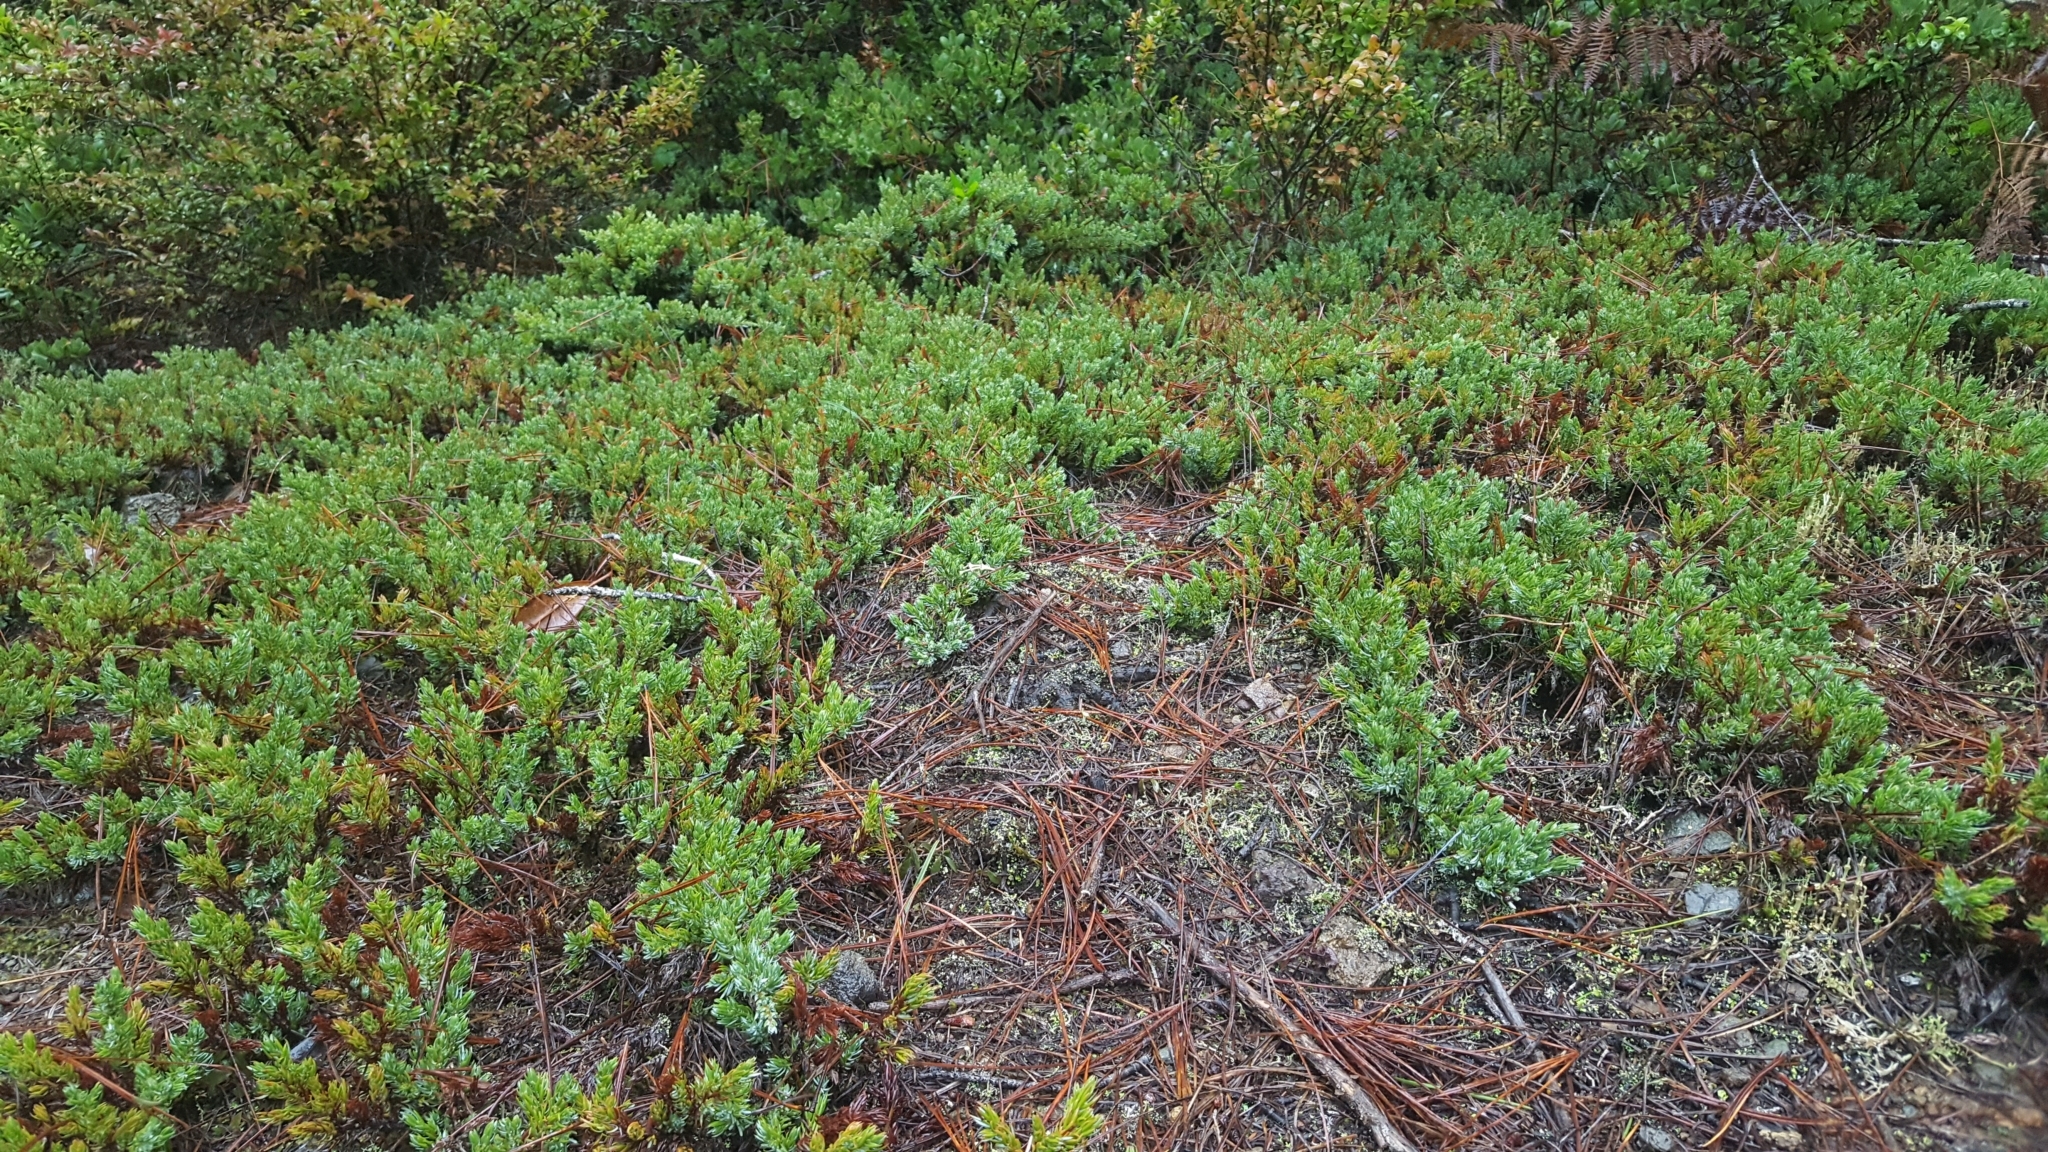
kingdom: Plantae
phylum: Tracheophyta
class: Pinopsida
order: Pinales
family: Cupressaceae
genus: Juniperus
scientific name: Juniperus communis
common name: Common juniper
